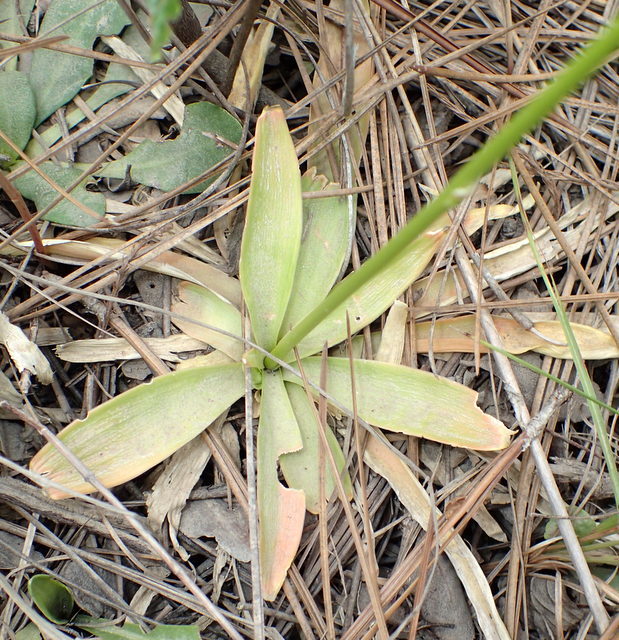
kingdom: Plantae
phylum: Tracheophyta
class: Liliopsida
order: Dioscoreales
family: Nartheciaceae
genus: Aletris
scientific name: Aletris lutea
